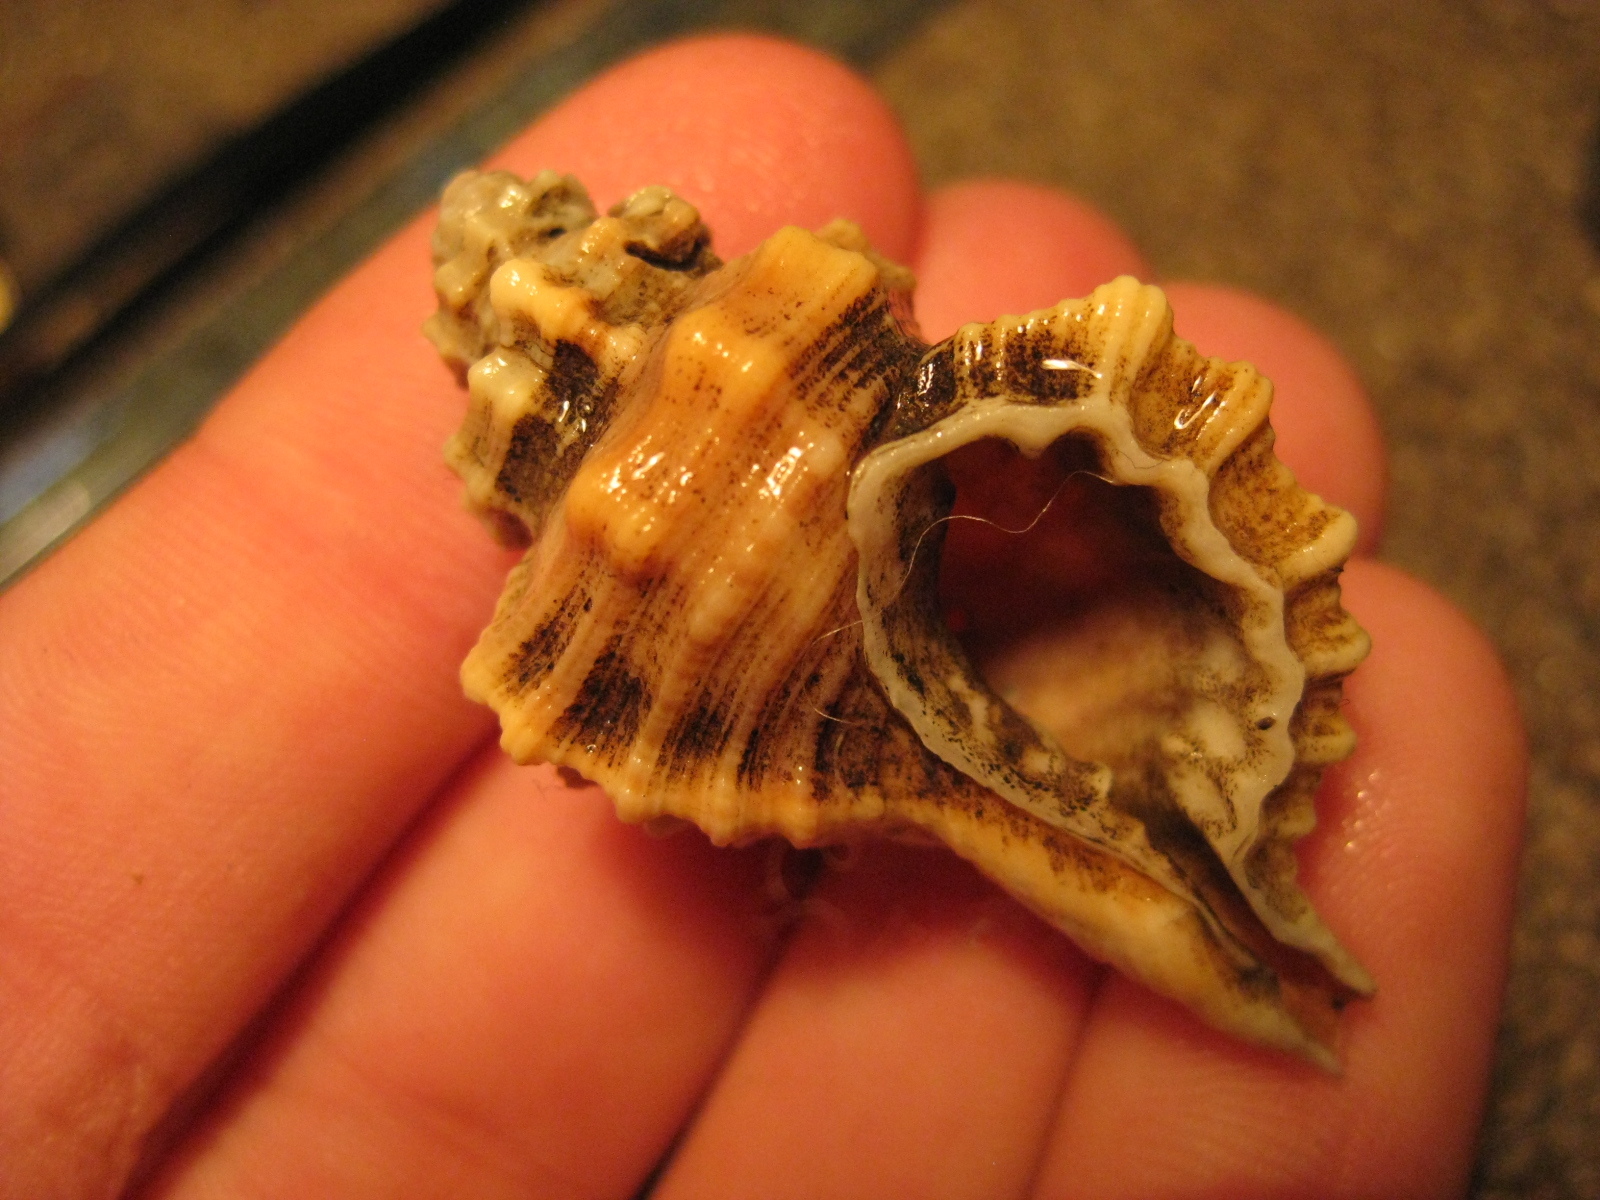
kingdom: Animalia
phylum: Mollusca
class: Gastropoda
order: Littorinimorpha
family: Cymatiidae
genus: Monoplex
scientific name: Monoplex exaratus
